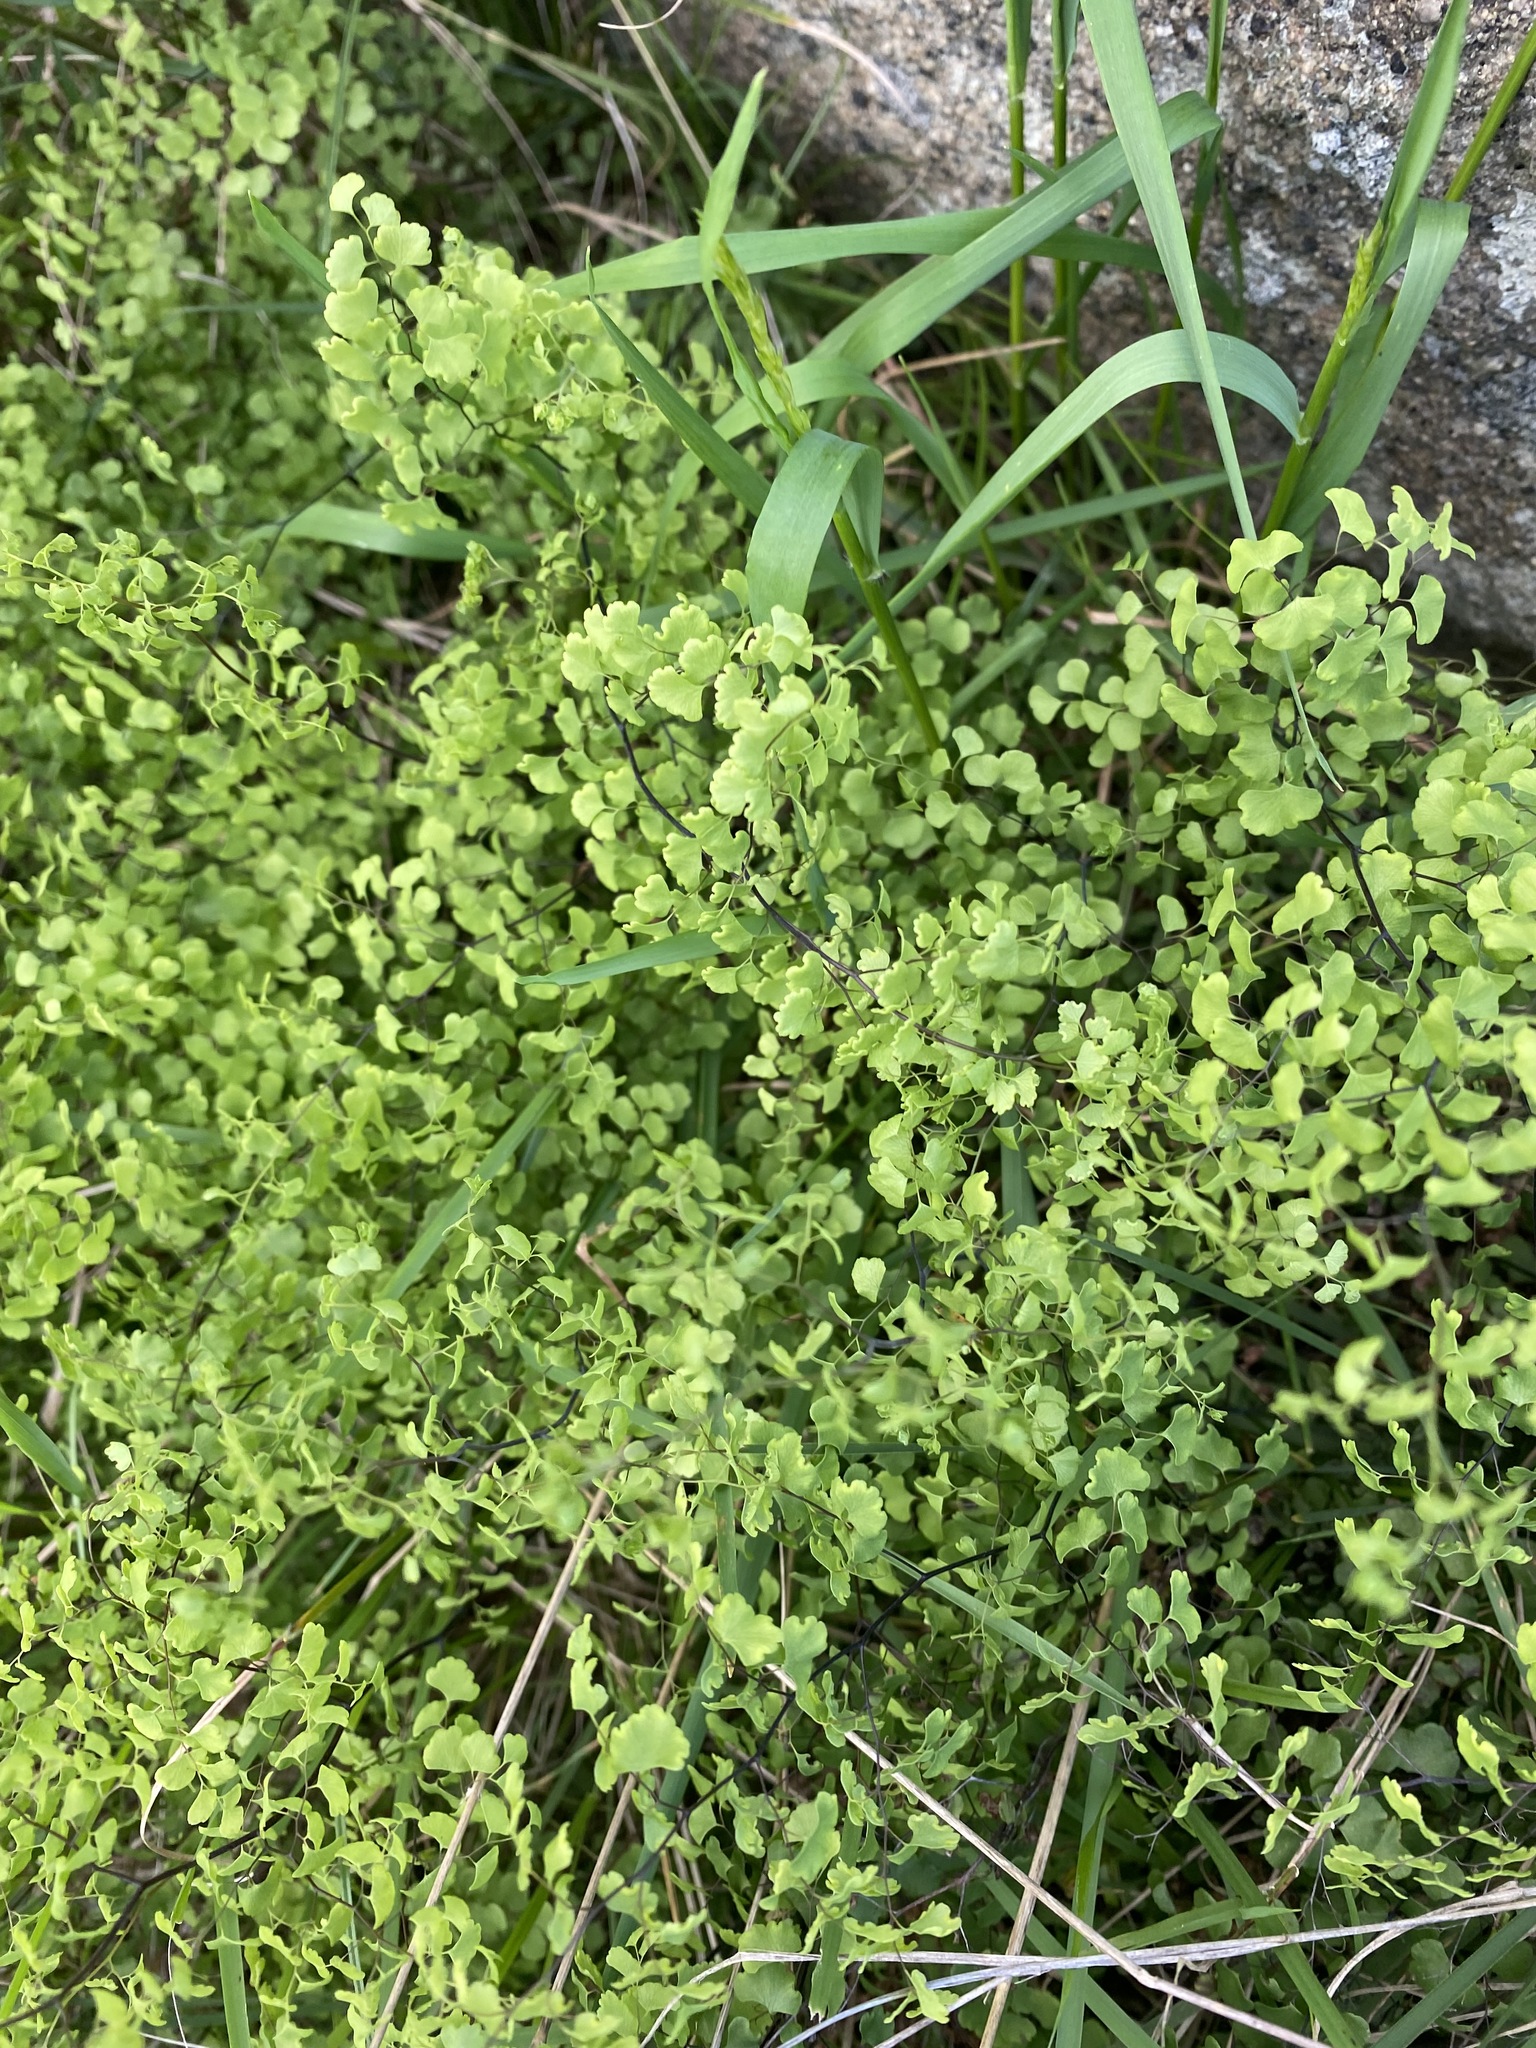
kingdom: Plantae
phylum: Tracheophyta
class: Polypodiopsida
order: Polypodiales
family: Pteridaceae
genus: Adiantum
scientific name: Adiantum aethiopicum
